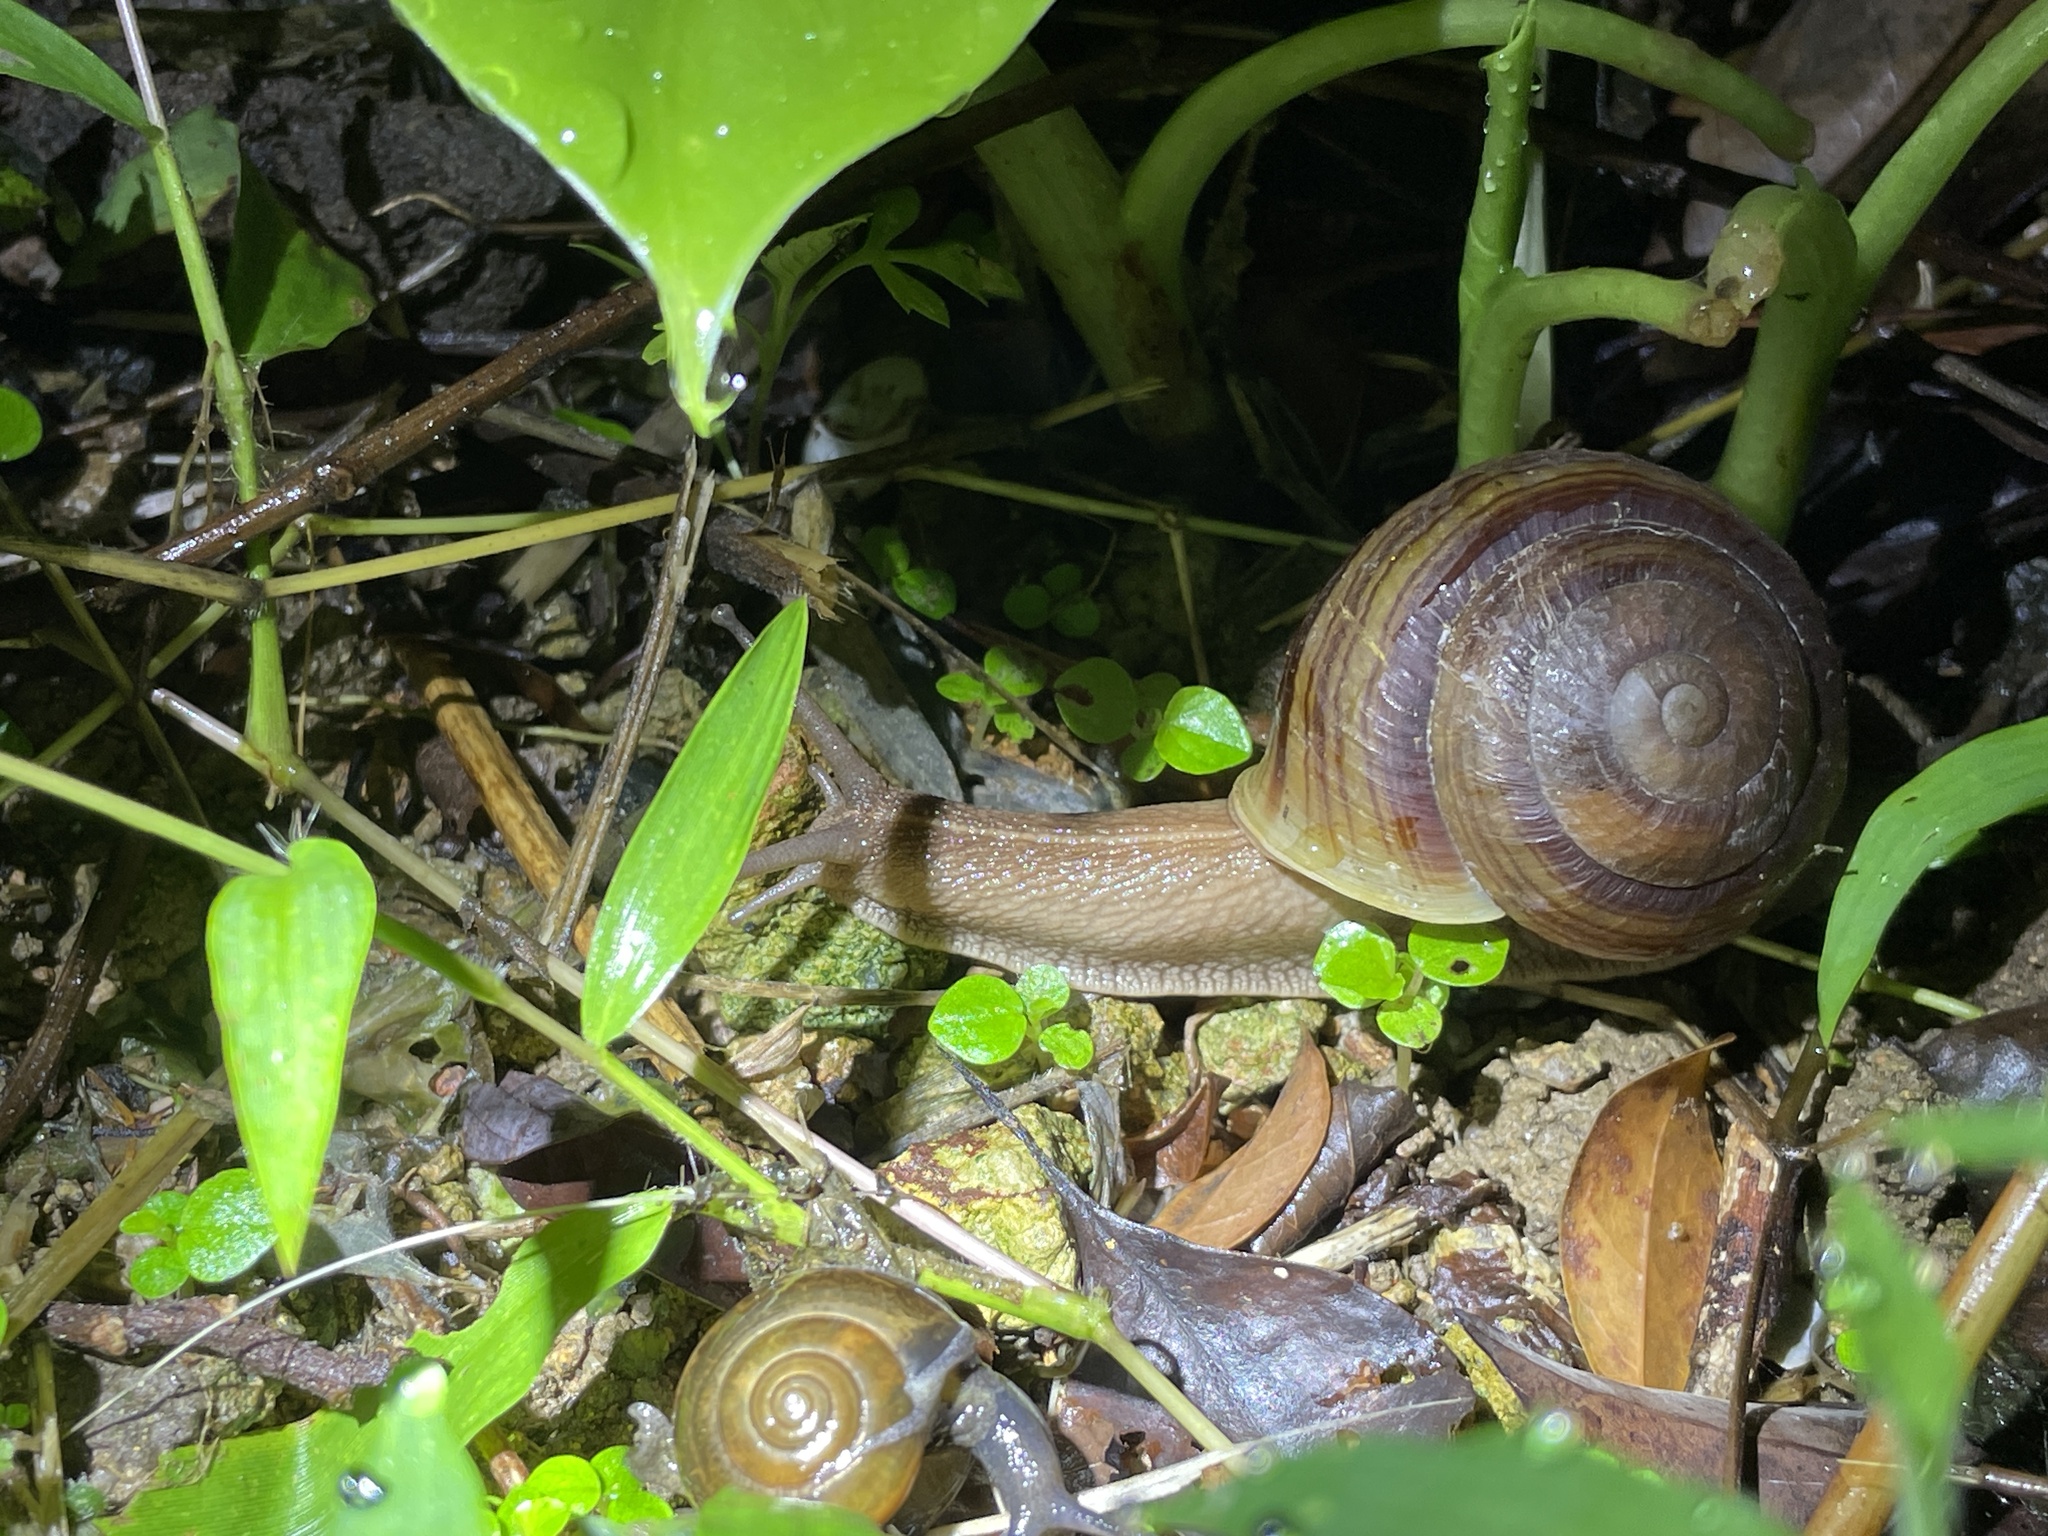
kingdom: Animalia
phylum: Mollusca
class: Gastropoda
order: Stylommatophora
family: Camaenidae
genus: Camaena
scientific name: Camaena cicatricosa
